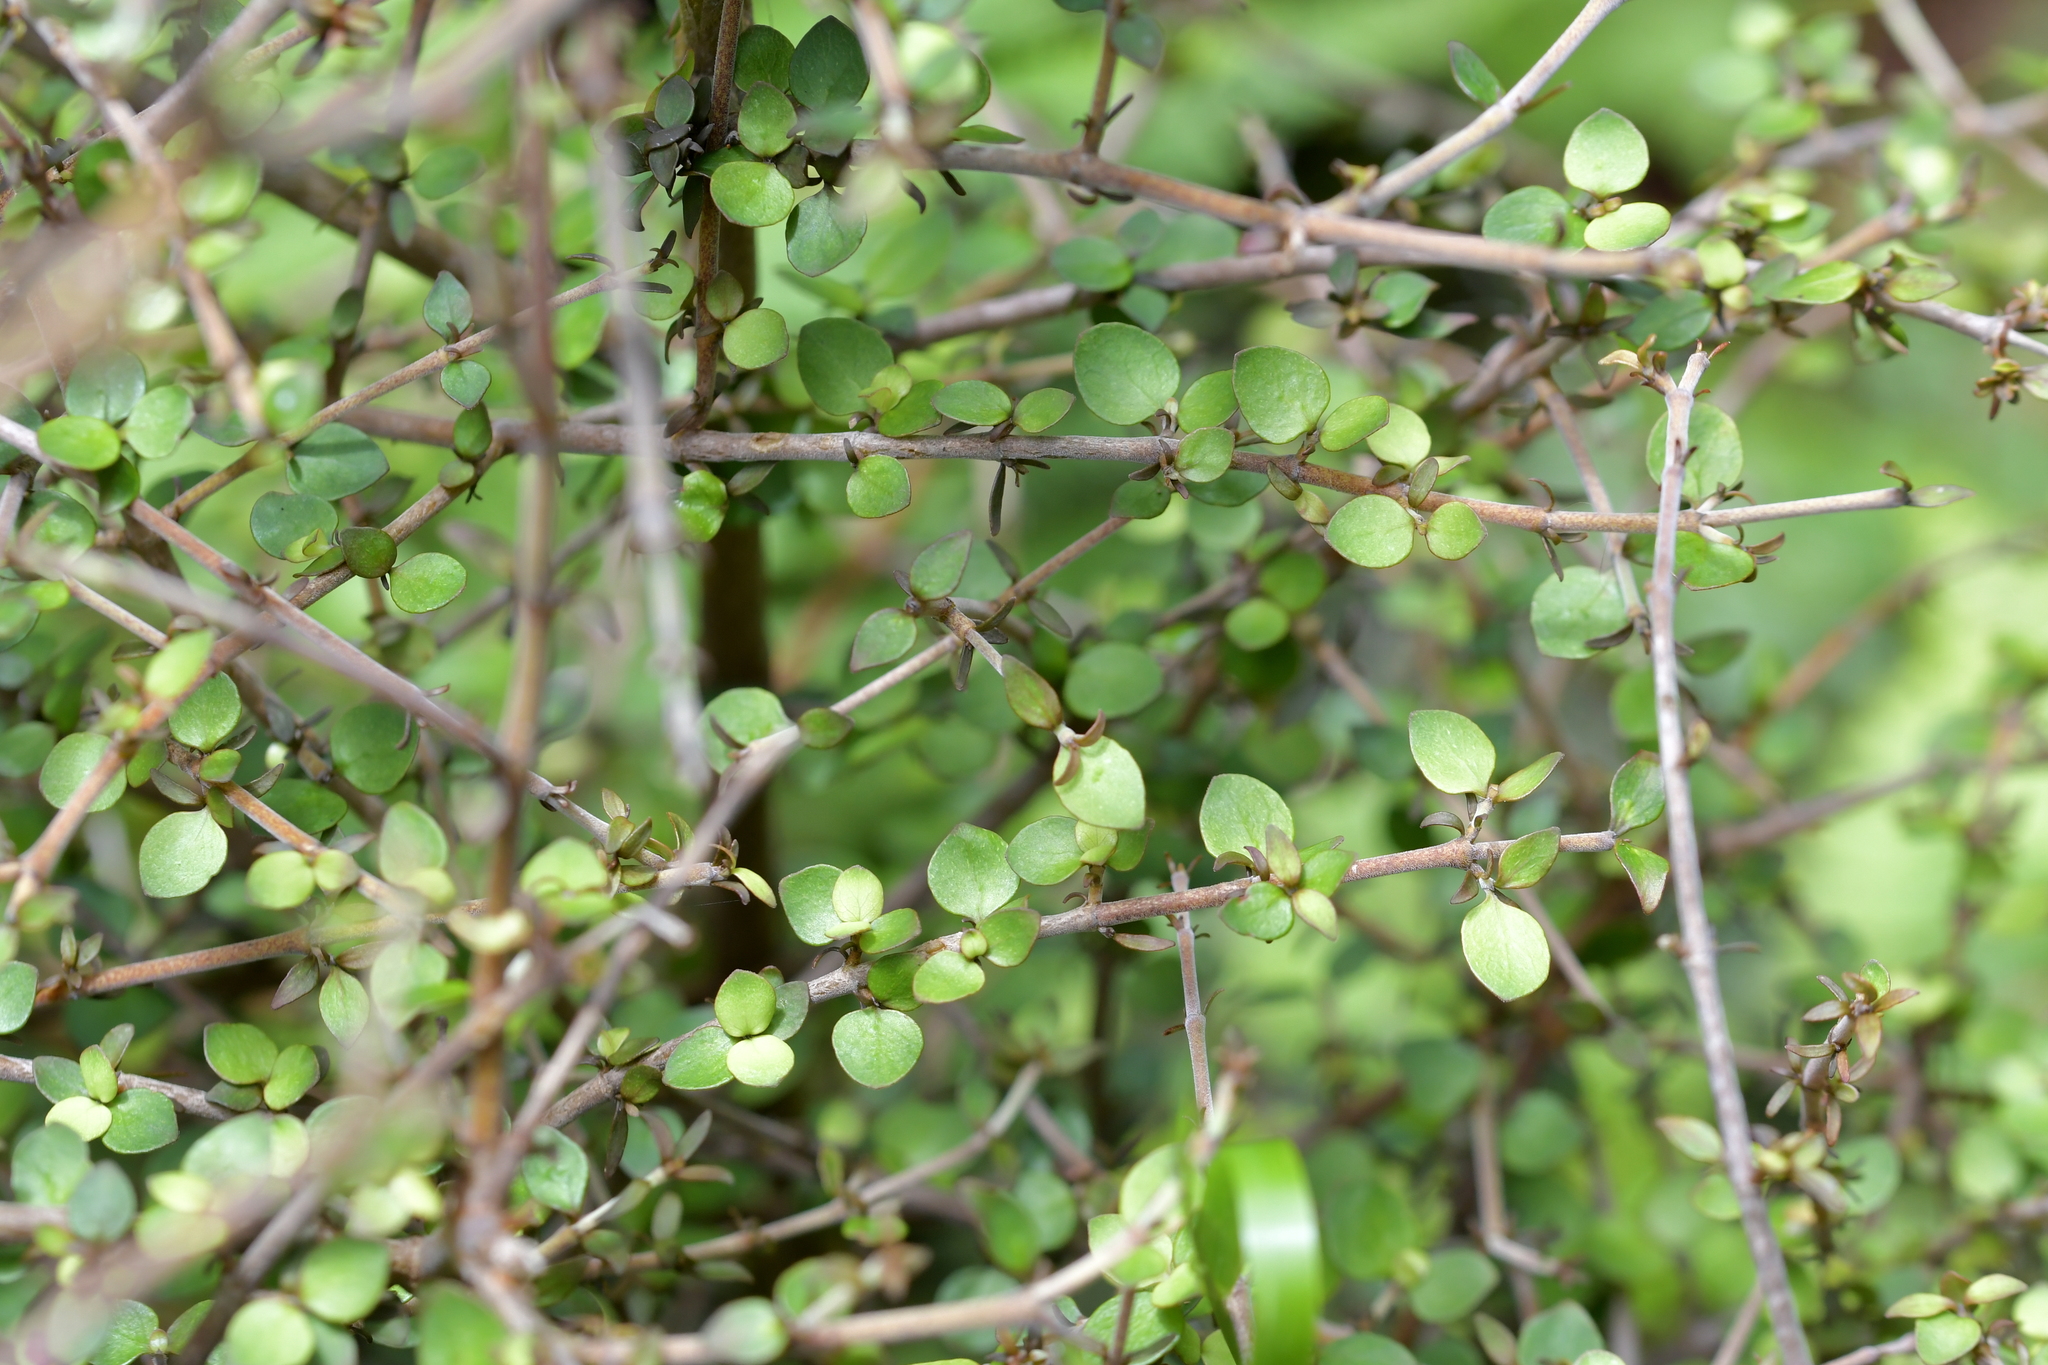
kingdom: Plantae
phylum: Tracheophyta
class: Magnoliopsida
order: Gentianales
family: Rubiaceae
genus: Coprosma
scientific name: Coprosma rhamnoides
